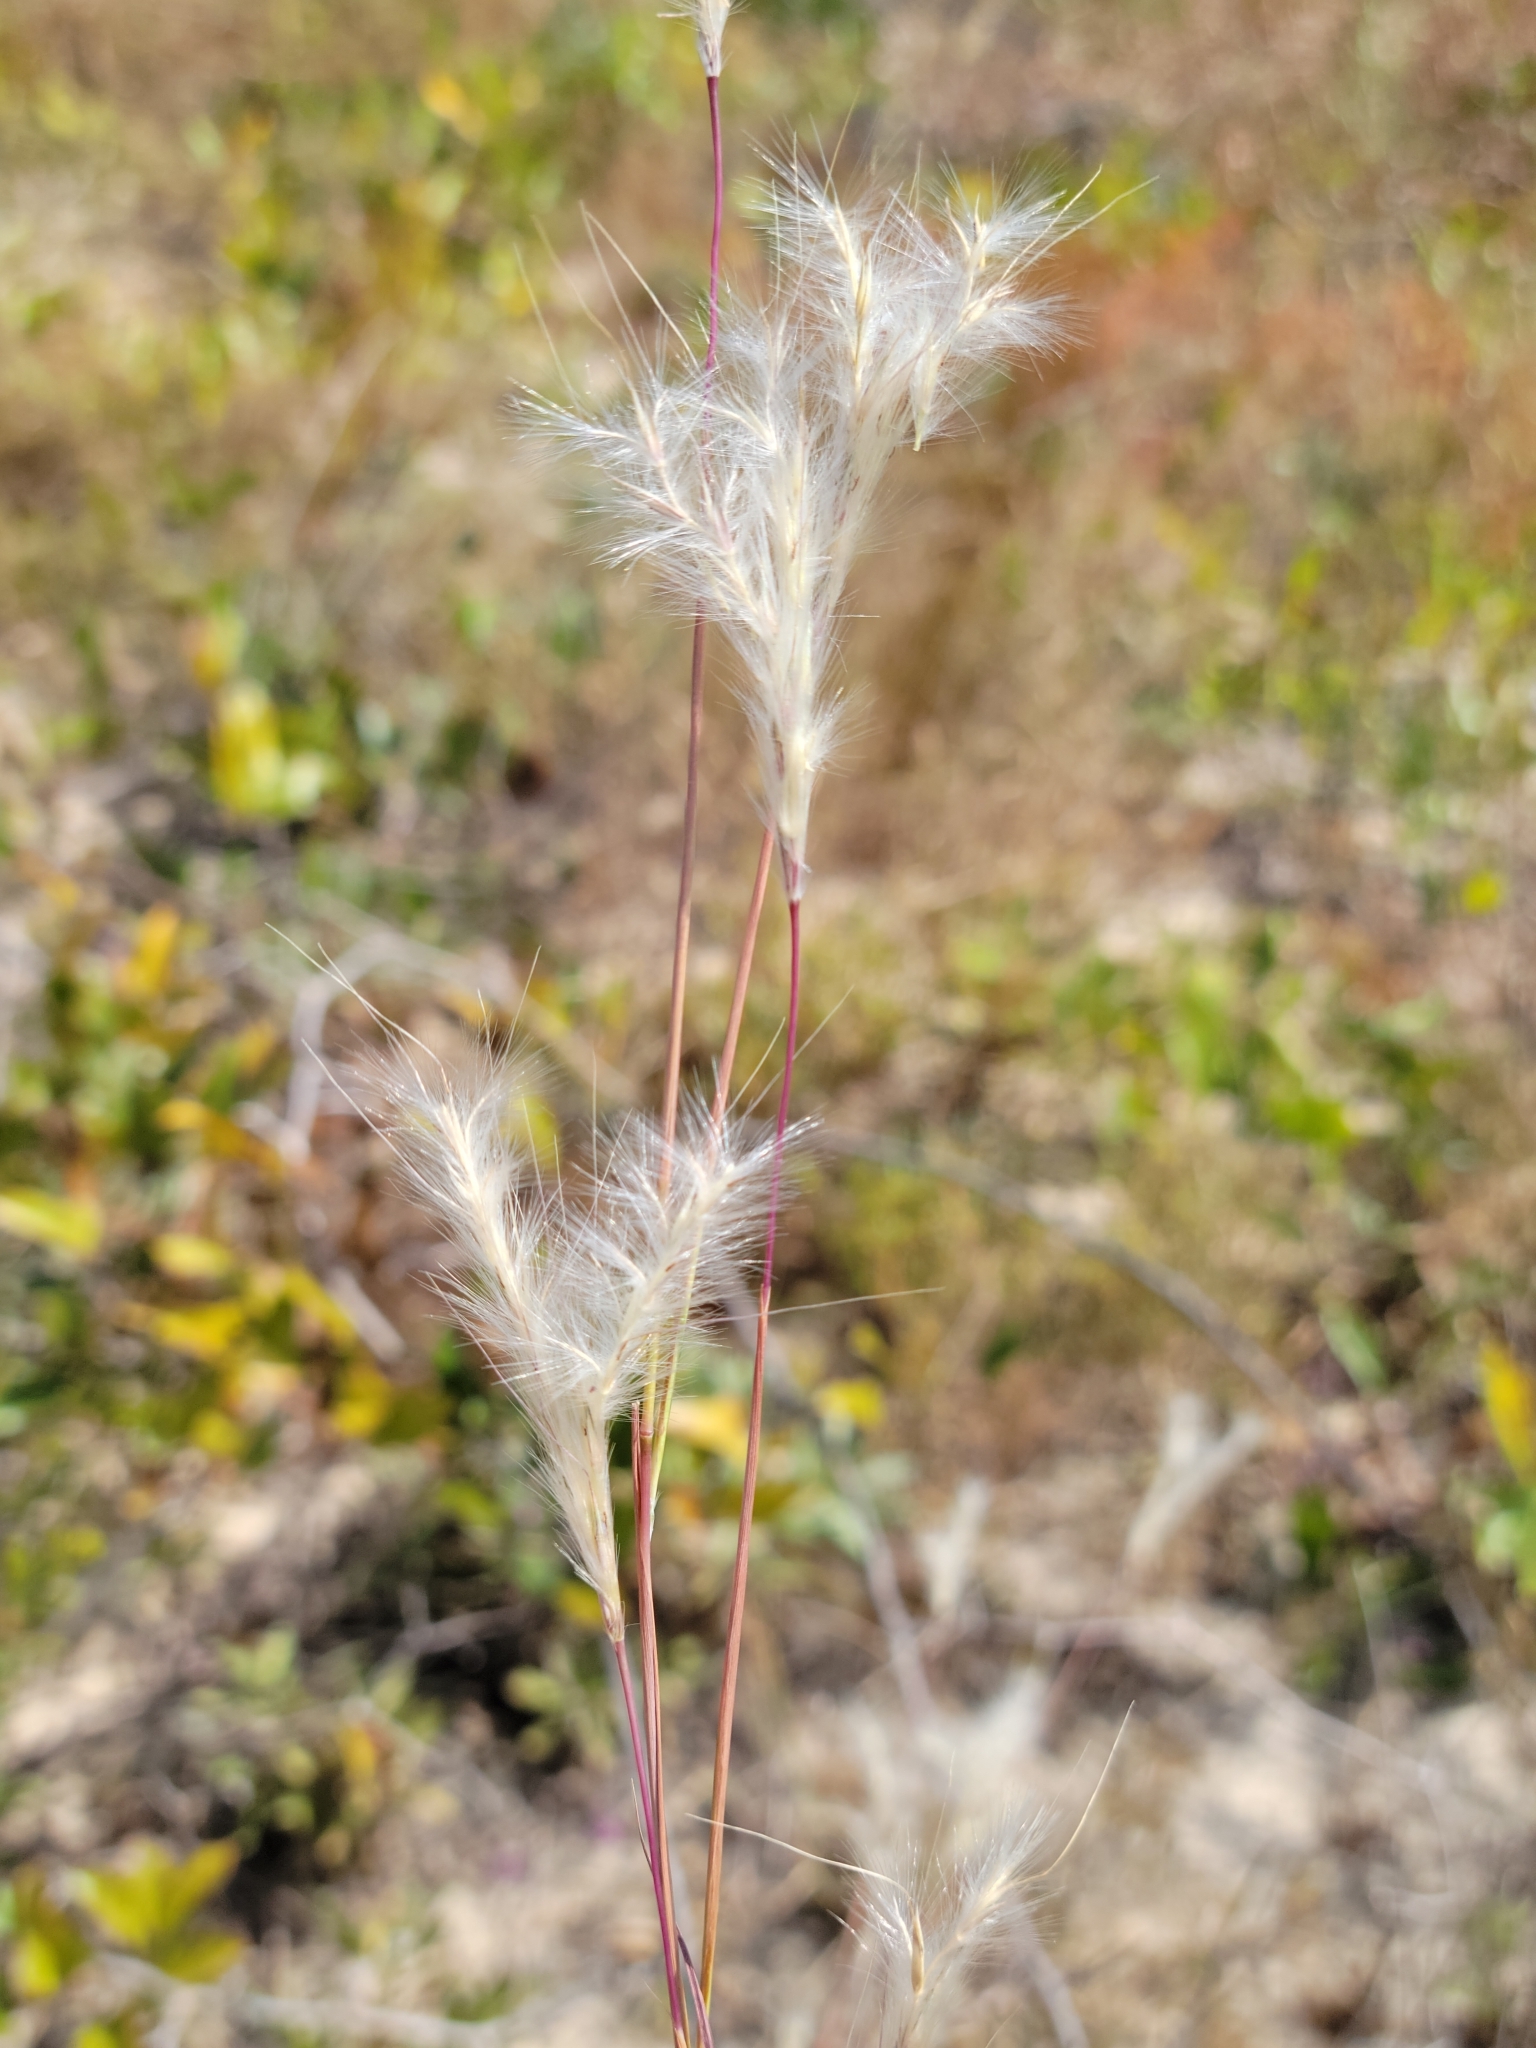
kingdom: Plantae
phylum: Tracheophyta
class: Liliopsida
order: Poales
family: Poaceae
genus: Andropogon
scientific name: Andropogon ternarius
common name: Split bluestem
